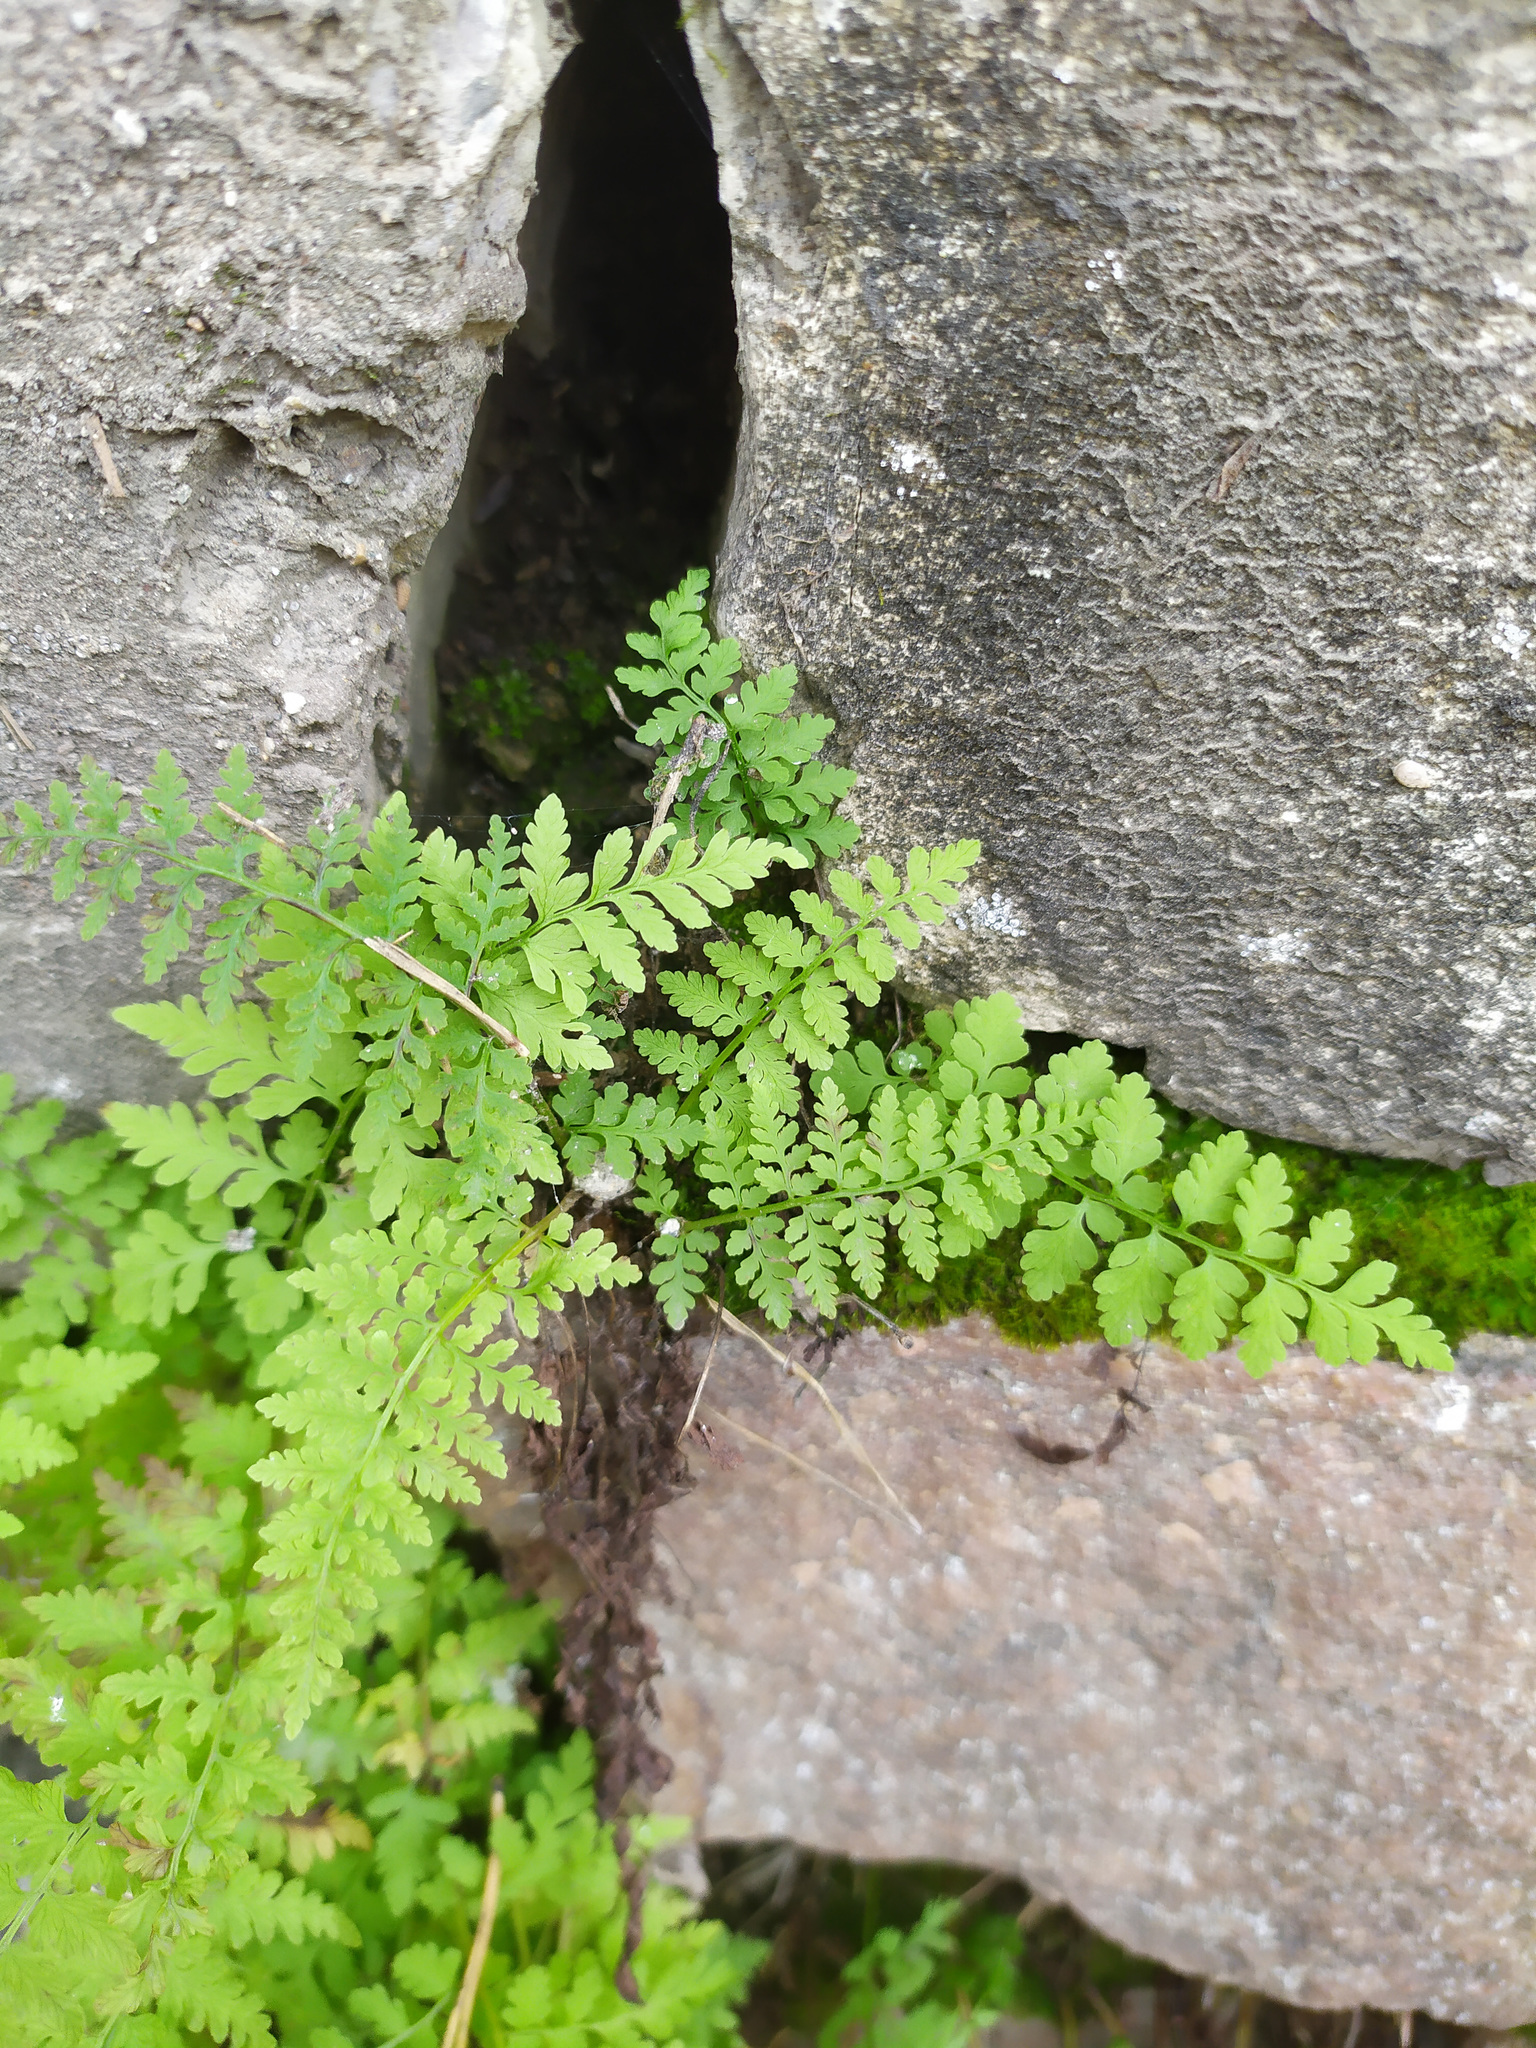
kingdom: Plantae
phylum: Tracheophyta
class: Polypodiopsida
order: Polypodiales
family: Cystopteridaceae
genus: Cystopteris
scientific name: Cystopteris fragilis
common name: Brittle bladder fern
